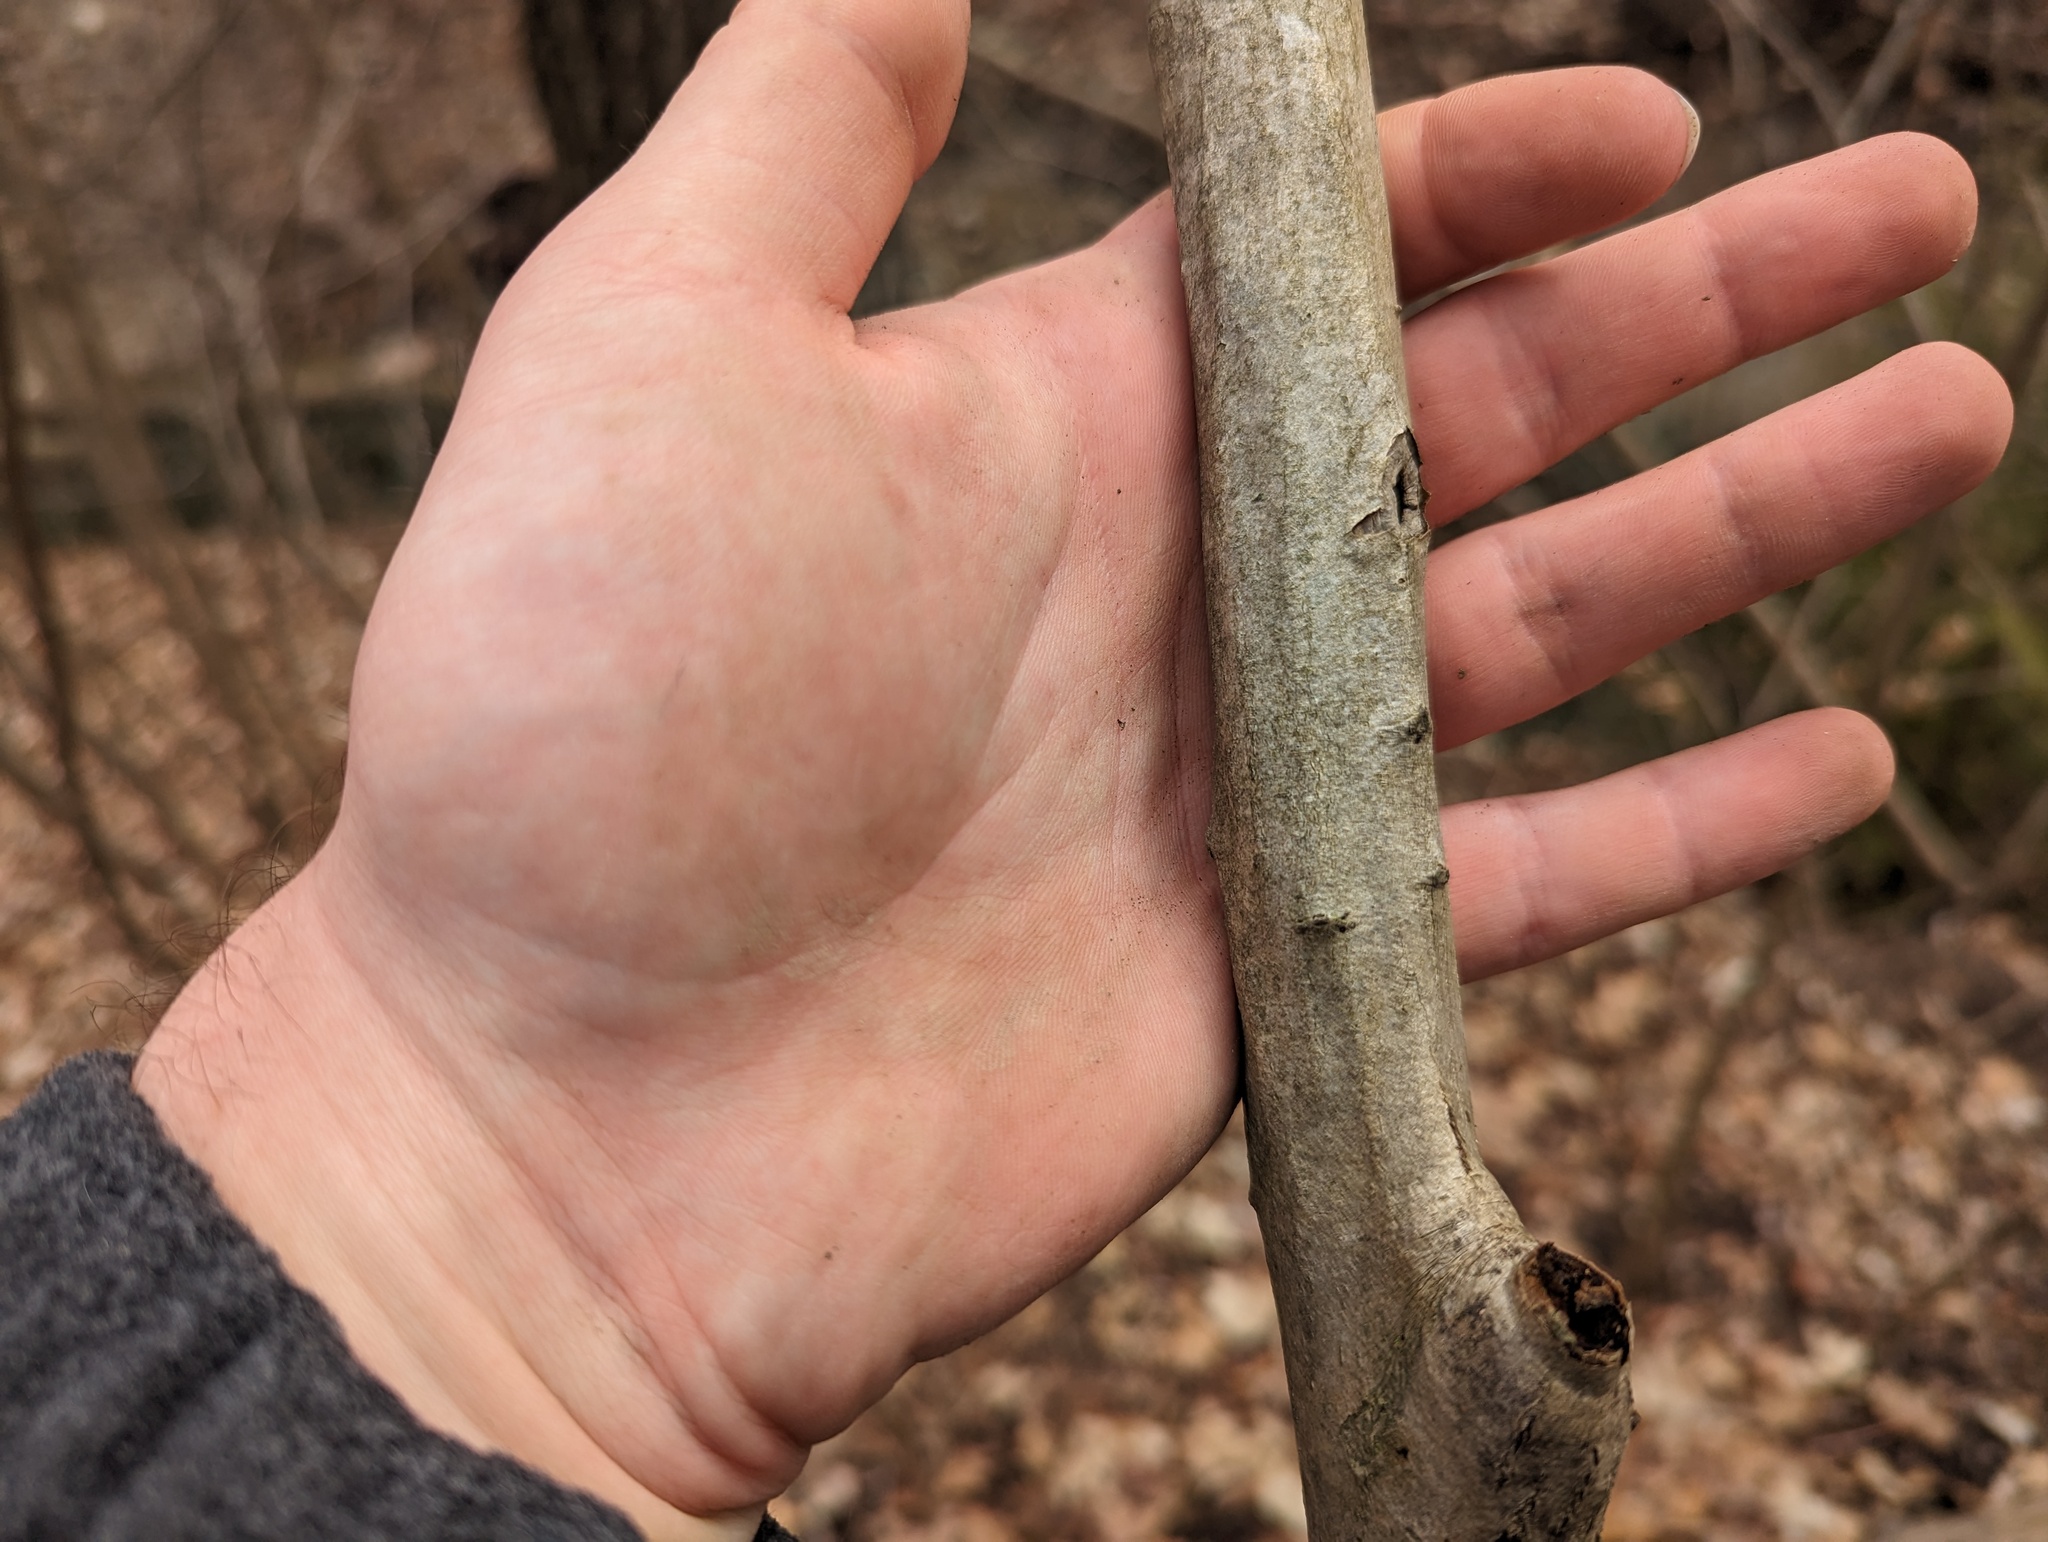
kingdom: Plantae
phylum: Tracheophyta
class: Magnoliopsida
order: Fagales
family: Betulaceae
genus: Carpinus
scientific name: Carpinus caroliniana
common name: American hornbeam
